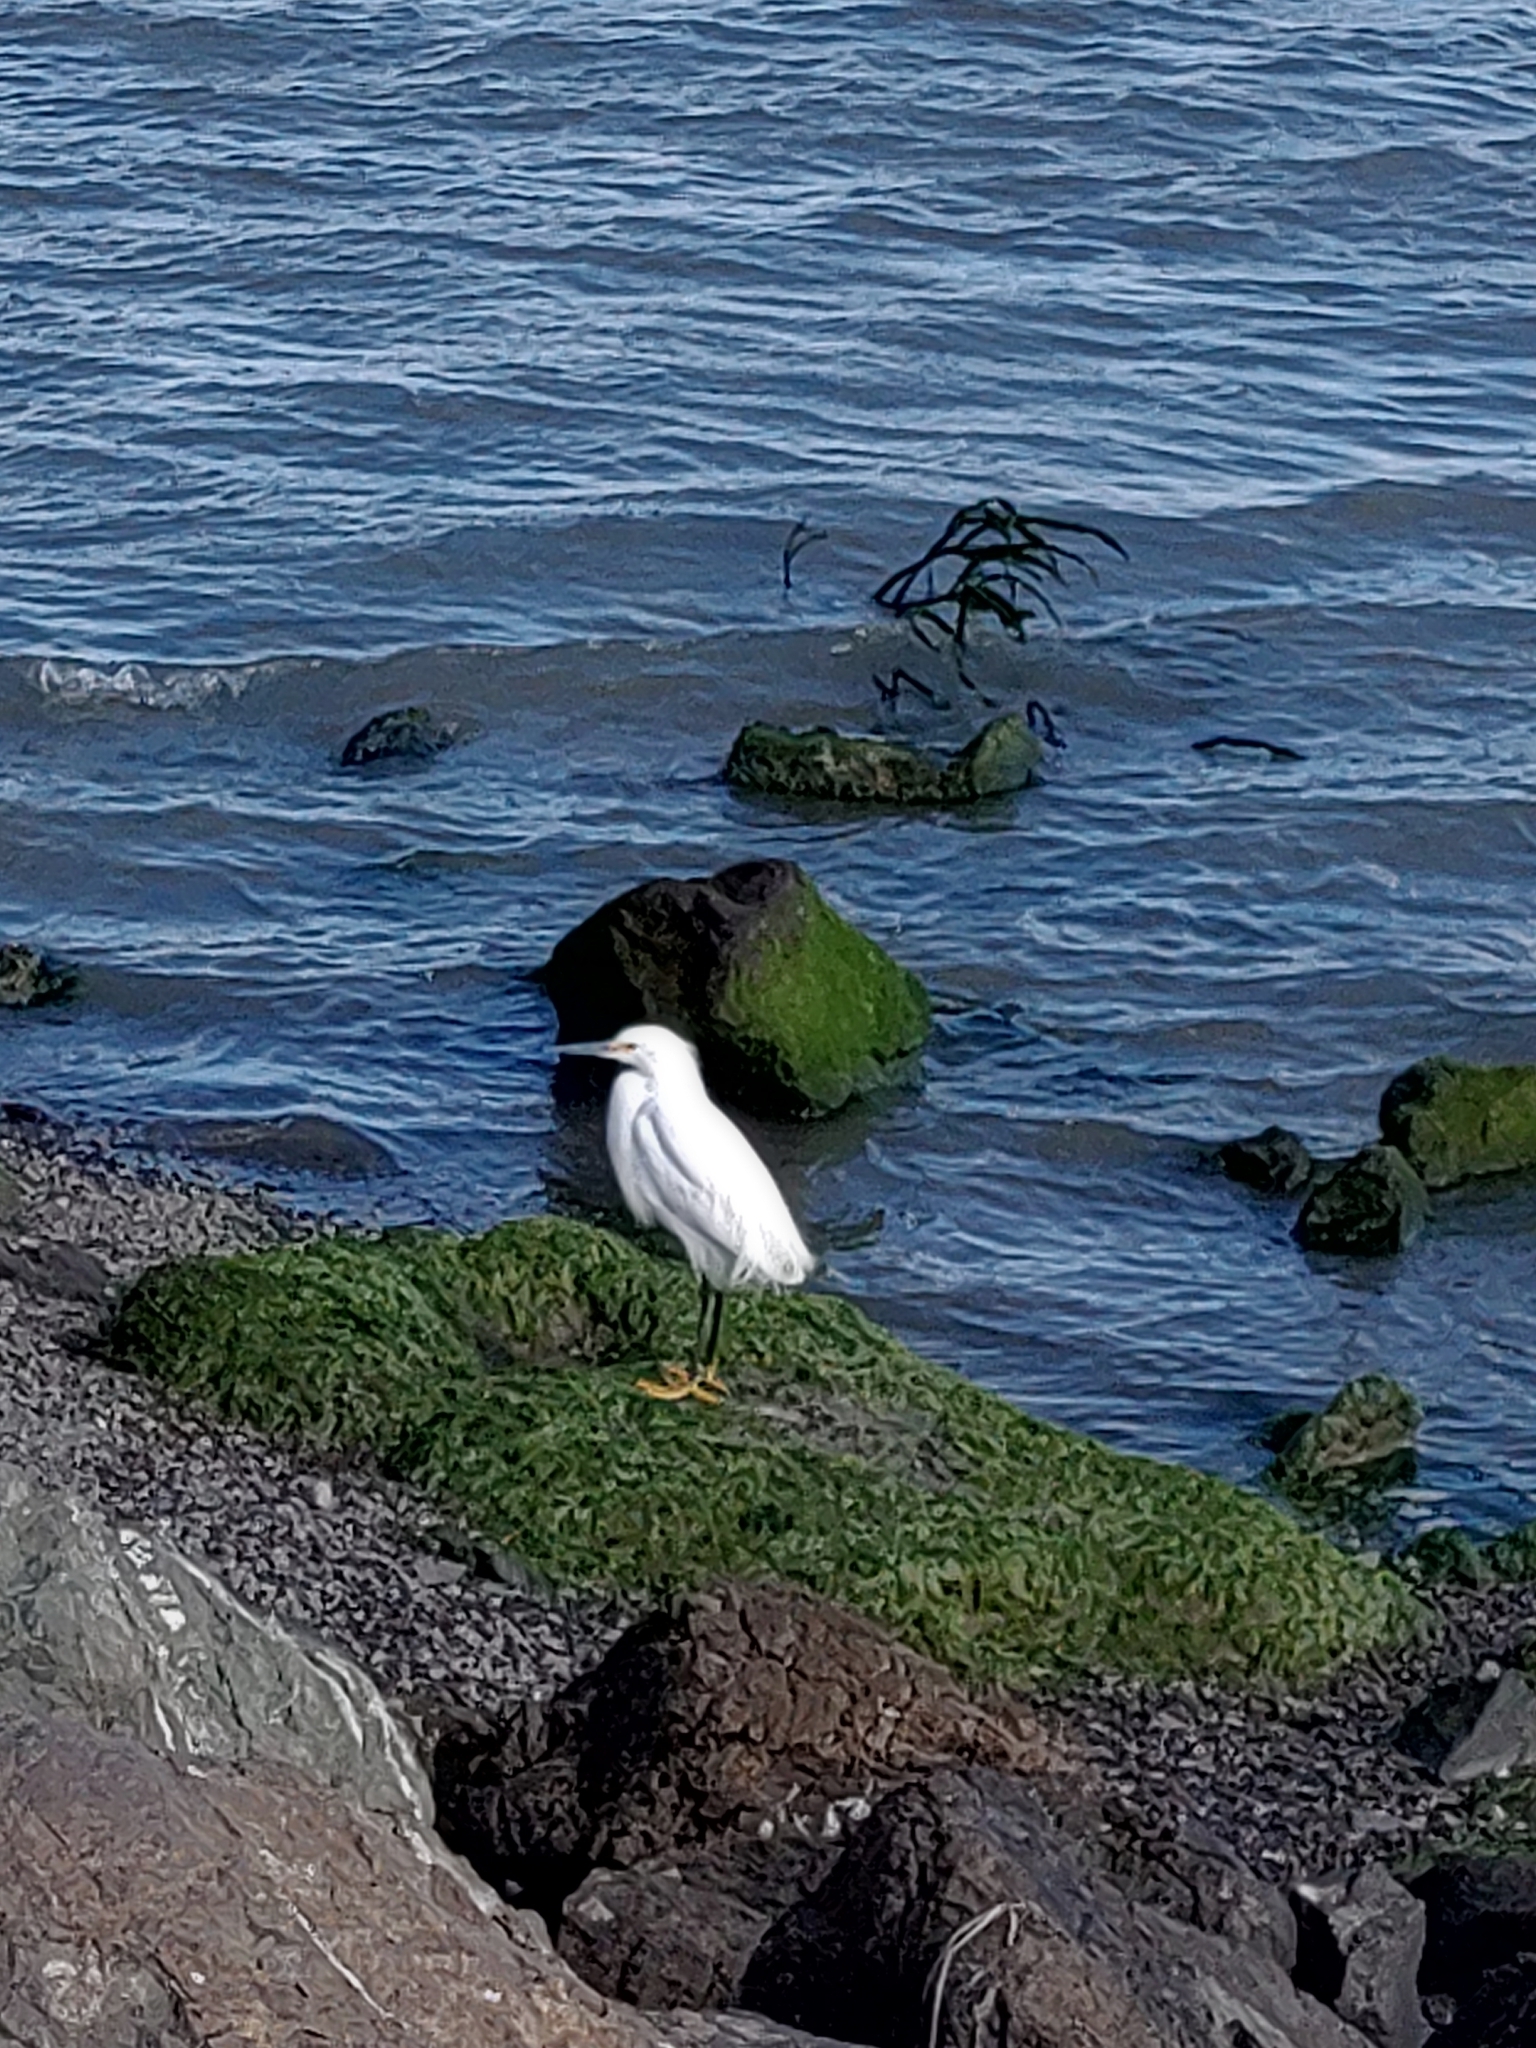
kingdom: Animalia
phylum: Chordata
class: Aves
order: Pelecaniformes
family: Ardeidae
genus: Egretta
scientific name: Egretta thula
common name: Snowy egret
